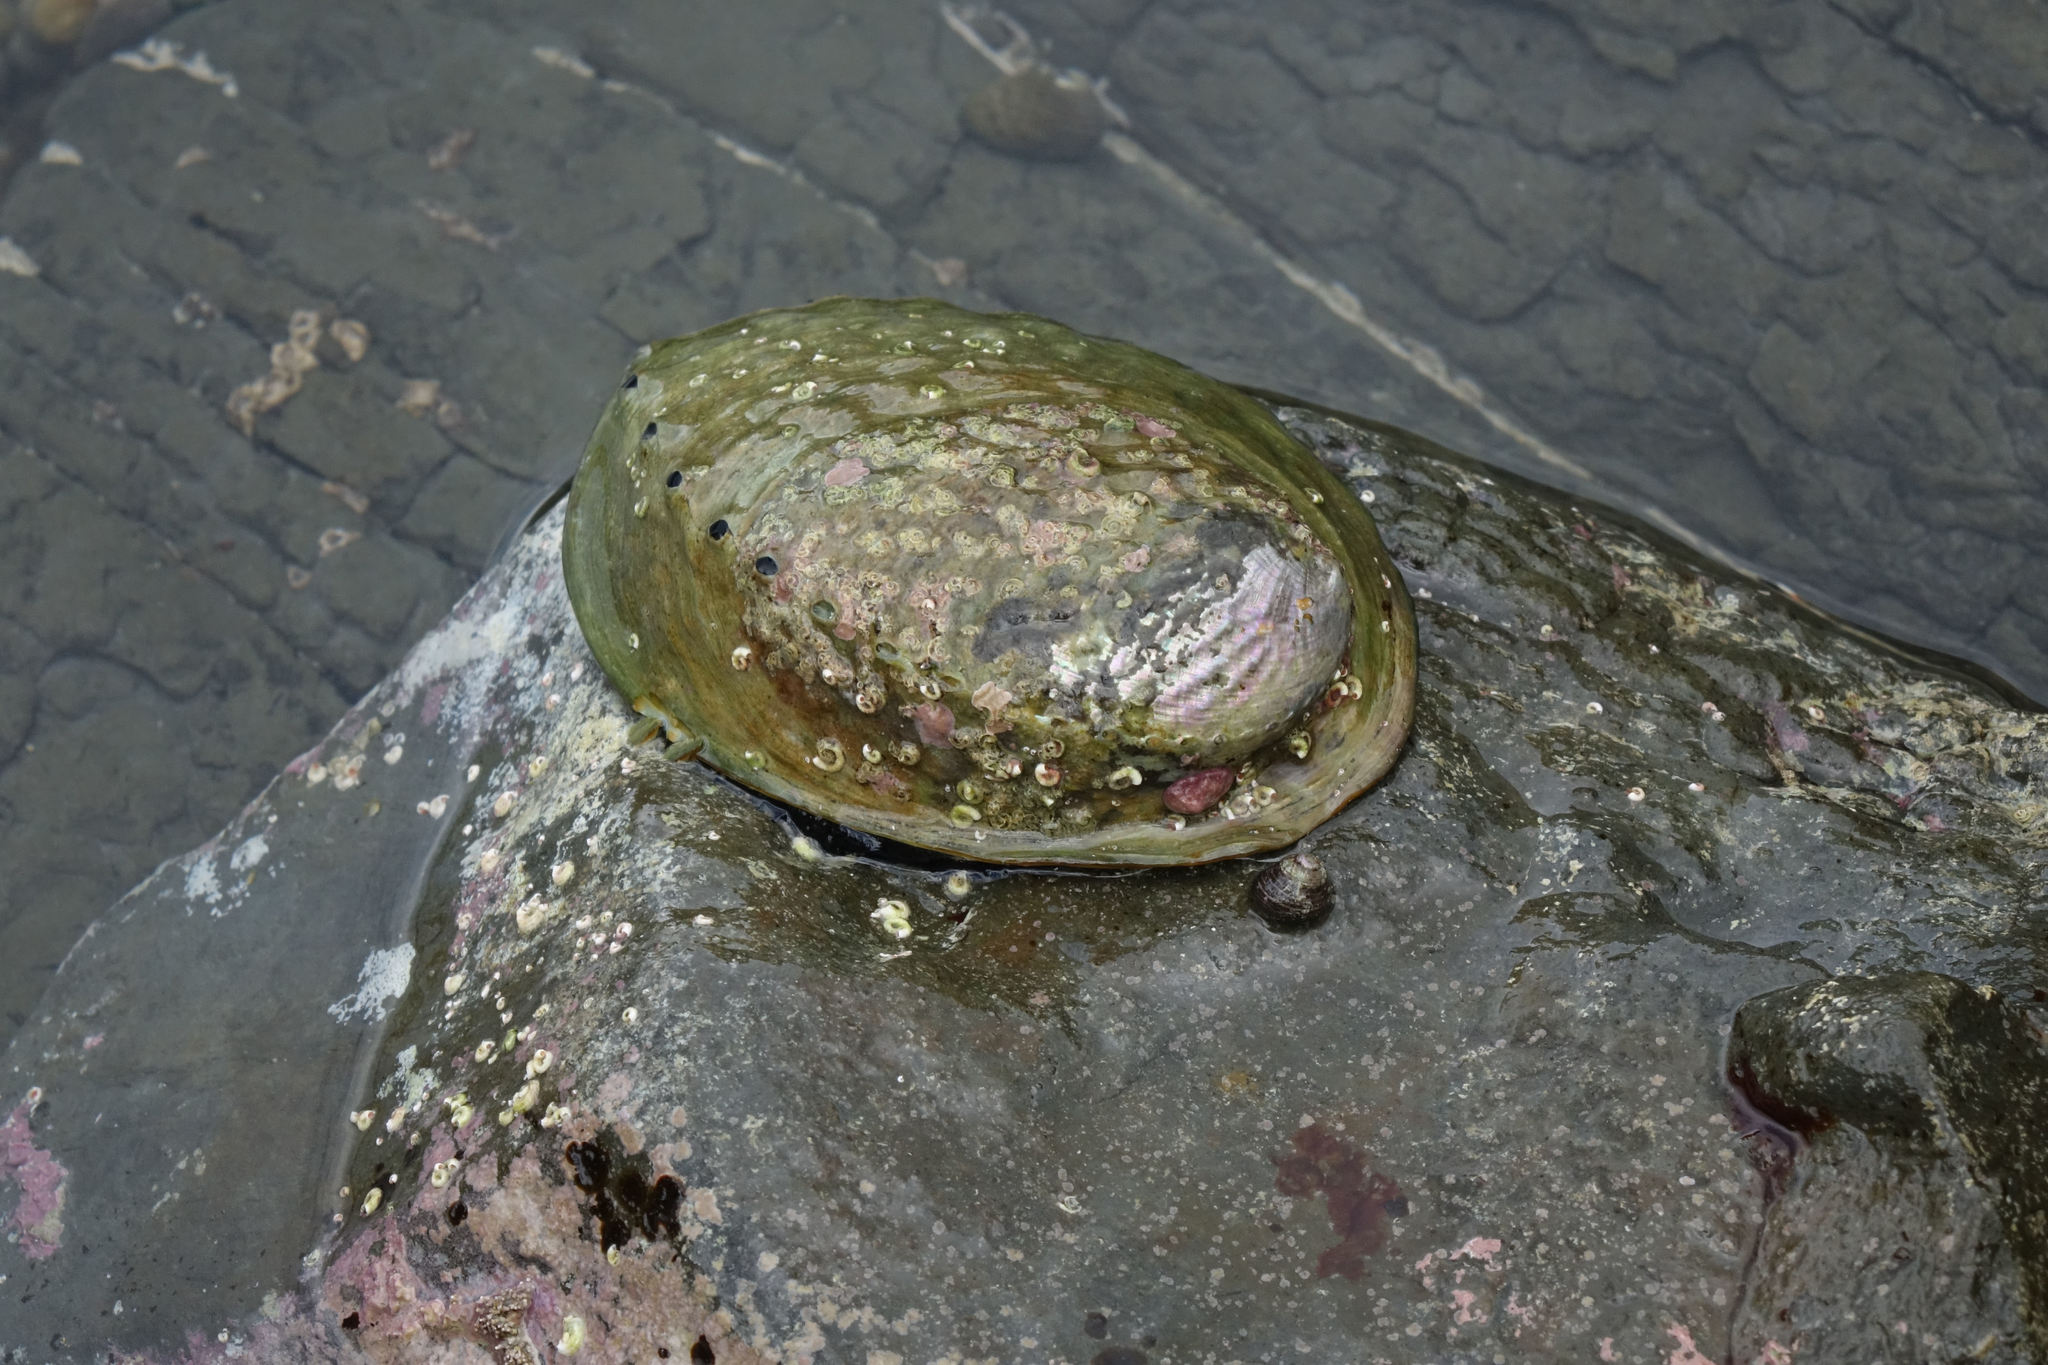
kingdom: Animalia
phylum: Mollusca
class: Gastropoda
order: Lepetellida
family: Haliotidae
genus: Haliotis
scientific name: Haliotis iris
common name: Abalone
